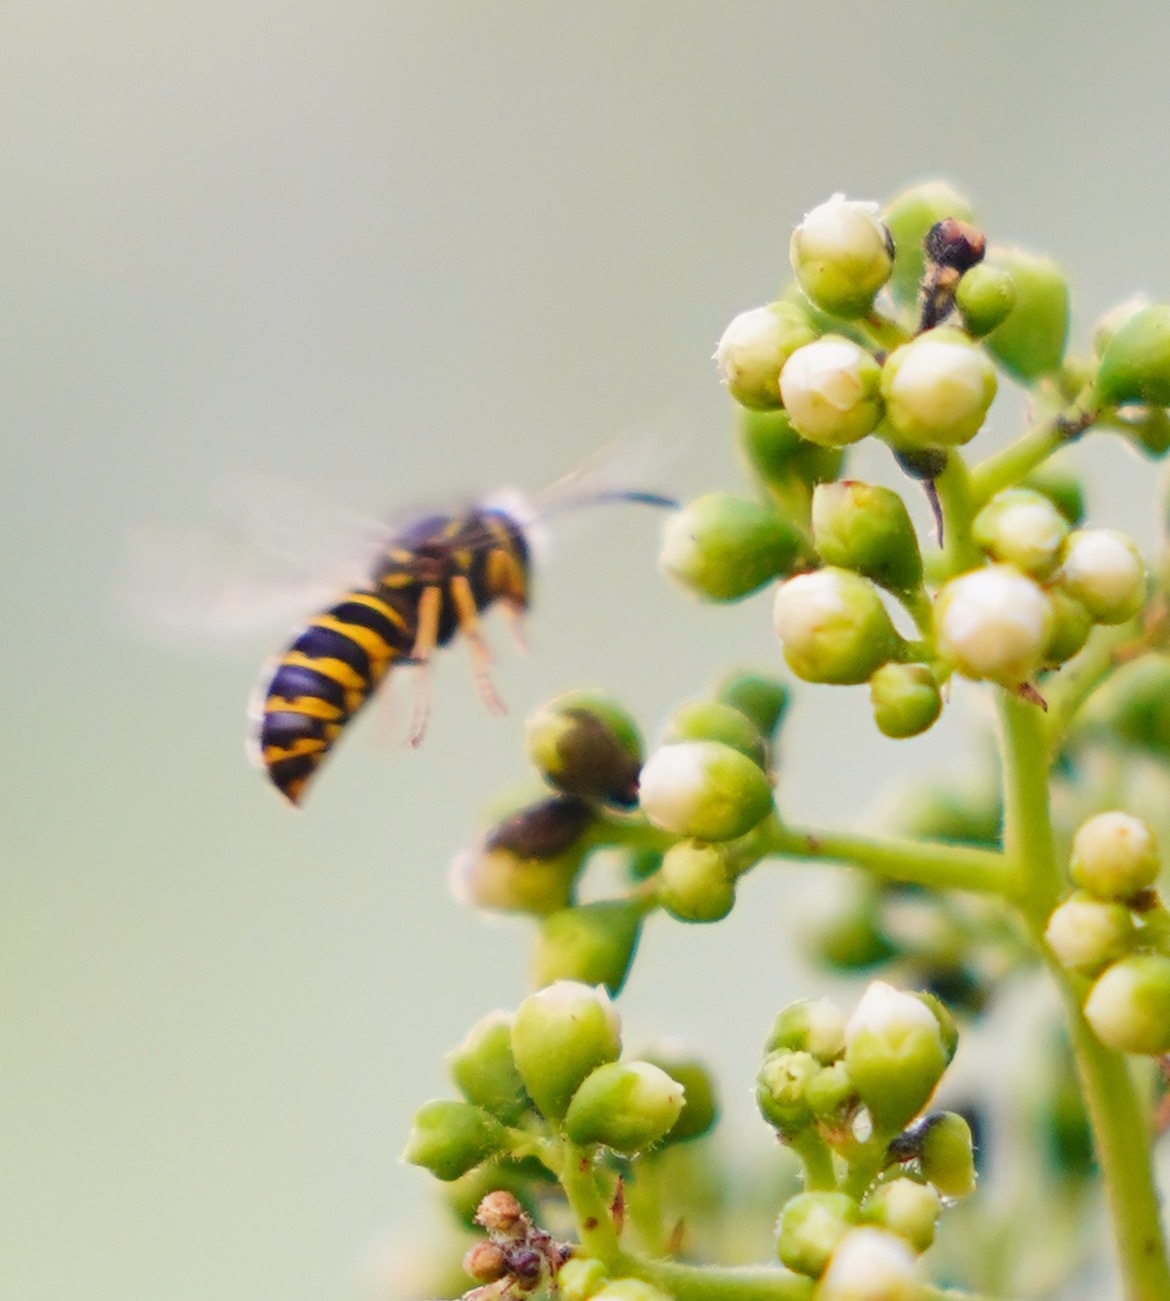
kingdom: Animalia
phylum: Arthropoda
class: Insecta
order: Hymenoptera
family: Vespidae
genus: Vespula
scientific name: Vespula alascensis
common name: Alaska yellowjacket
